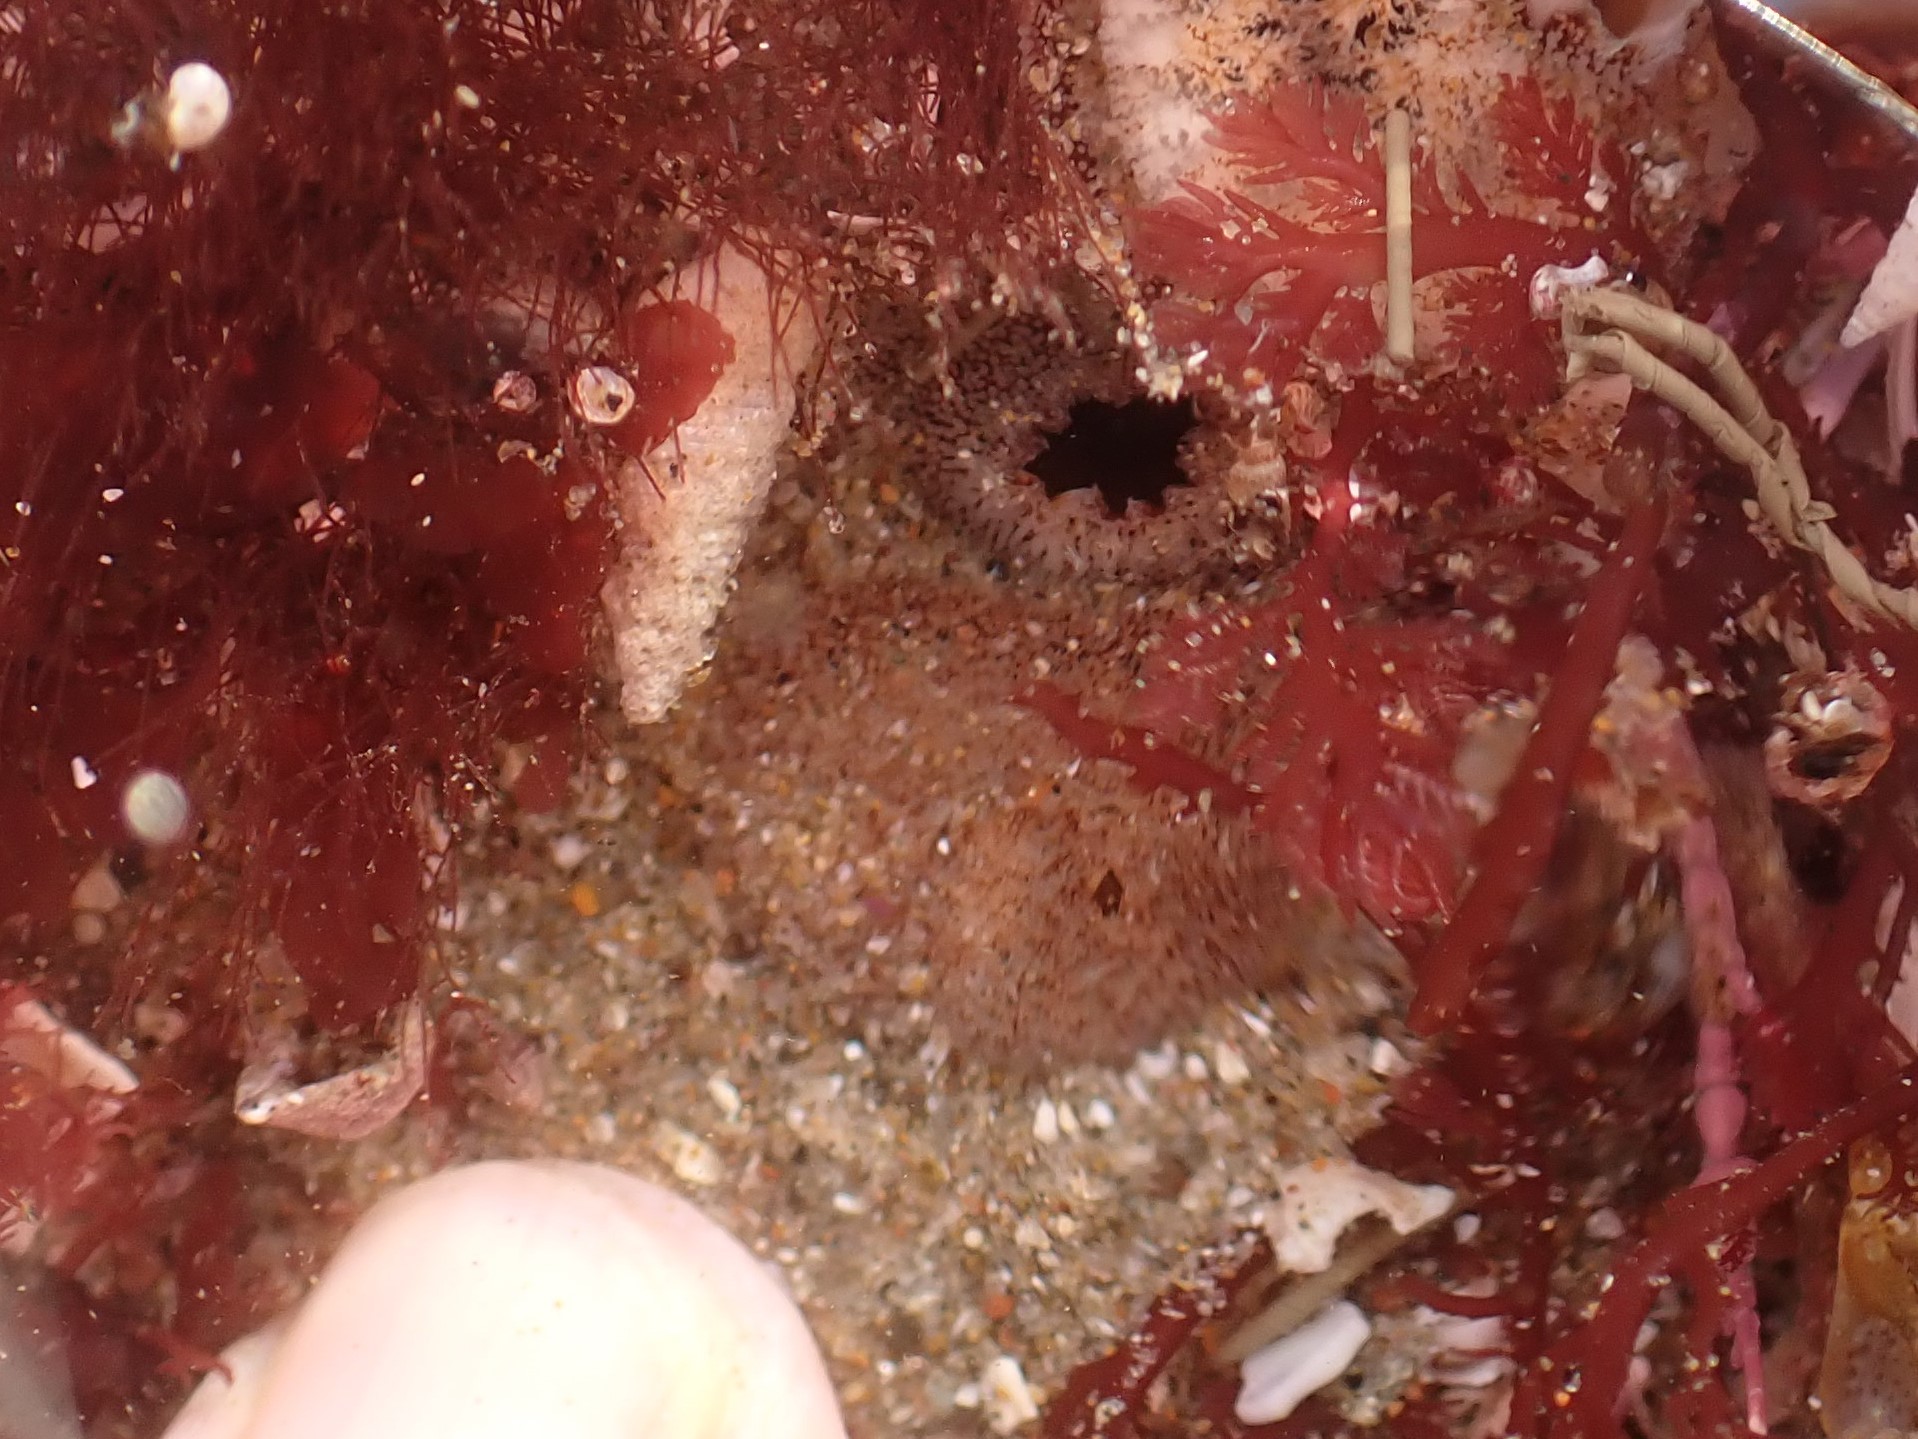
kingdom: Animalia
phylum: Mollusca
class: Bivalvia
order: Myida
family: Pholadidae
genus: Parapholas
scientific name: Parapholas californica
